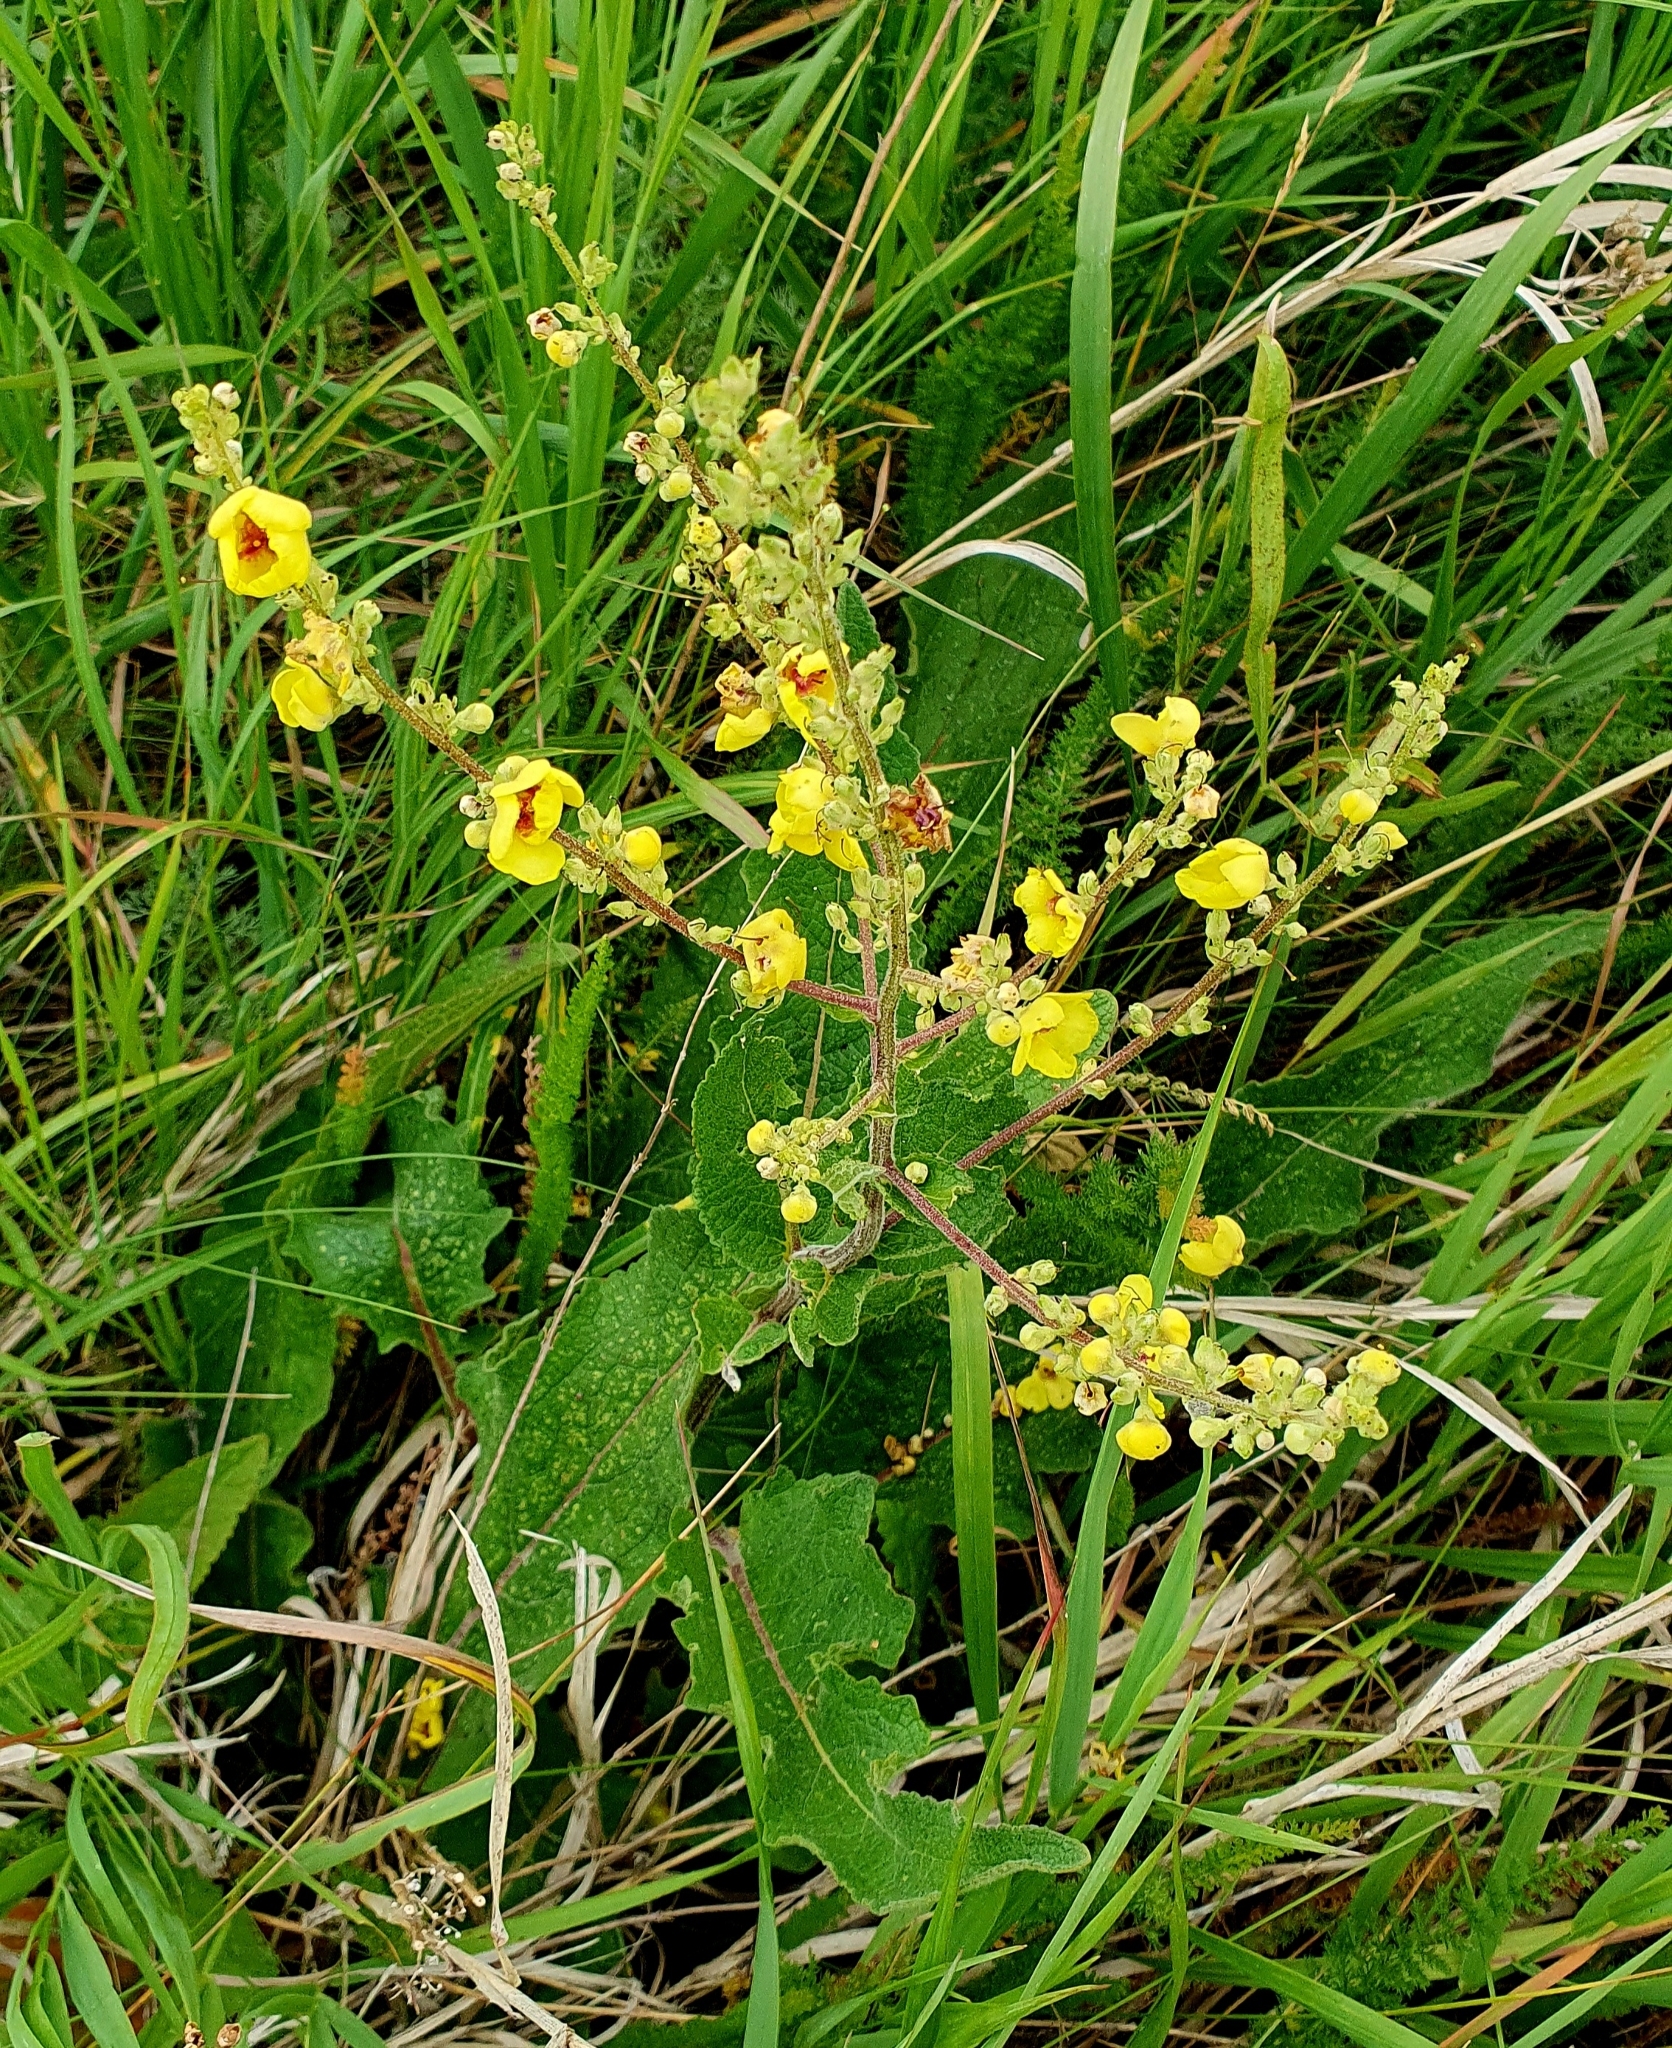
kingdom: Plantae
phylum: Tracheophyta
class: Magnoliopsida
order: Lamiales
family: Scrophulariaceae
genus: Verbascum
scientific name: Verbascum chaixii
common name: Nettle-leaved mullein
